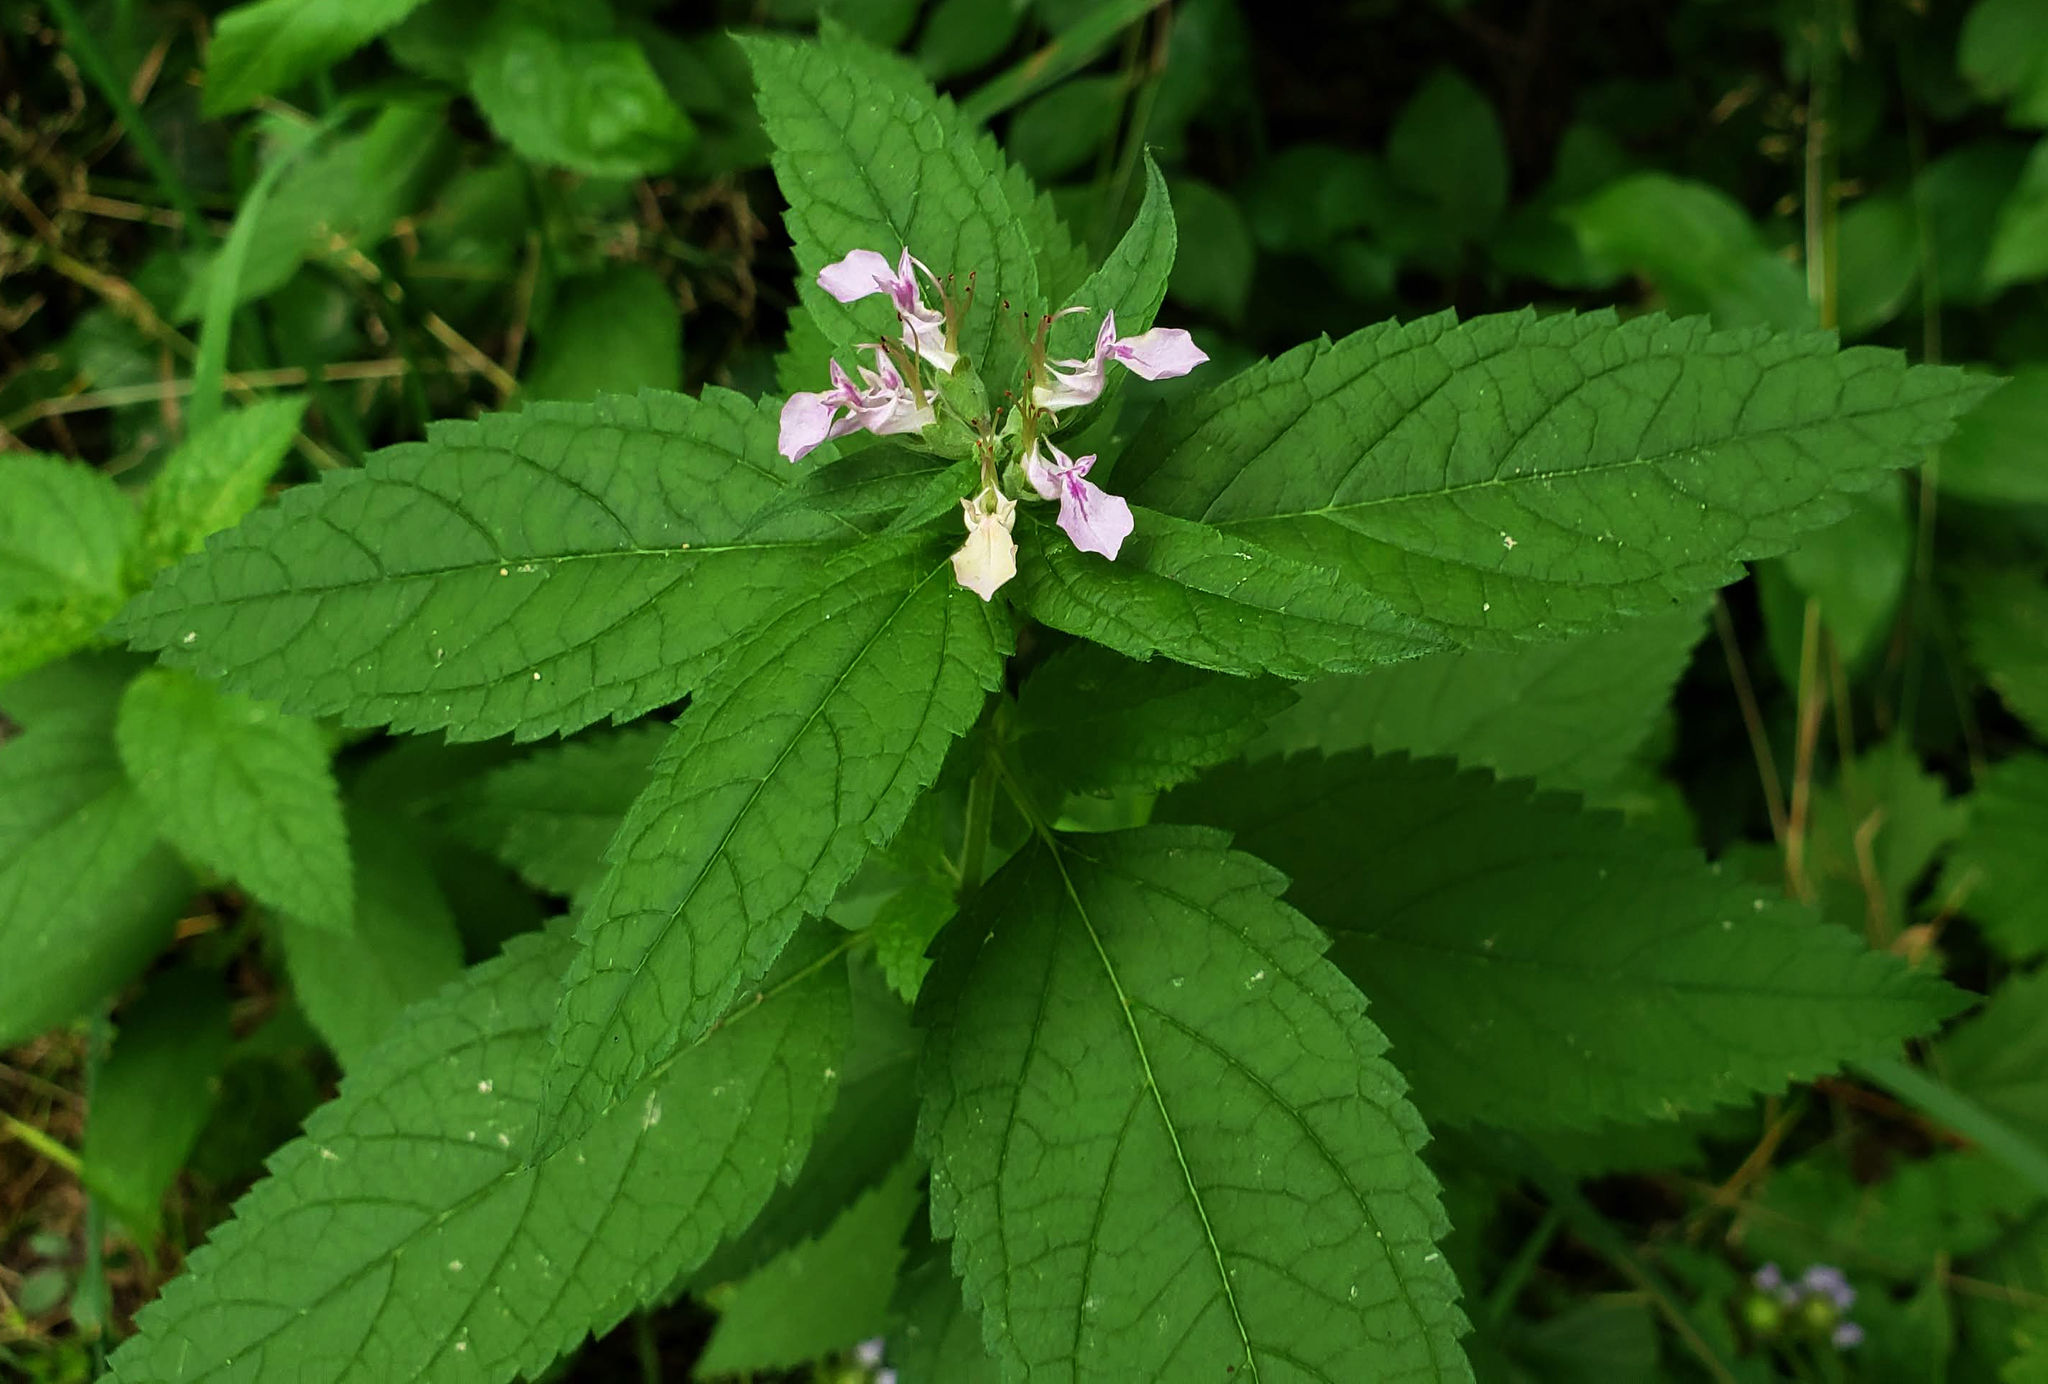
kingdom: Plantae
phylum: Tracheophyta
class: Magnoliopsida
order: Lamiales
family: Lamiaceae
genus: Teucrium
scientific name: Teucrium canadense
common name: American germander
